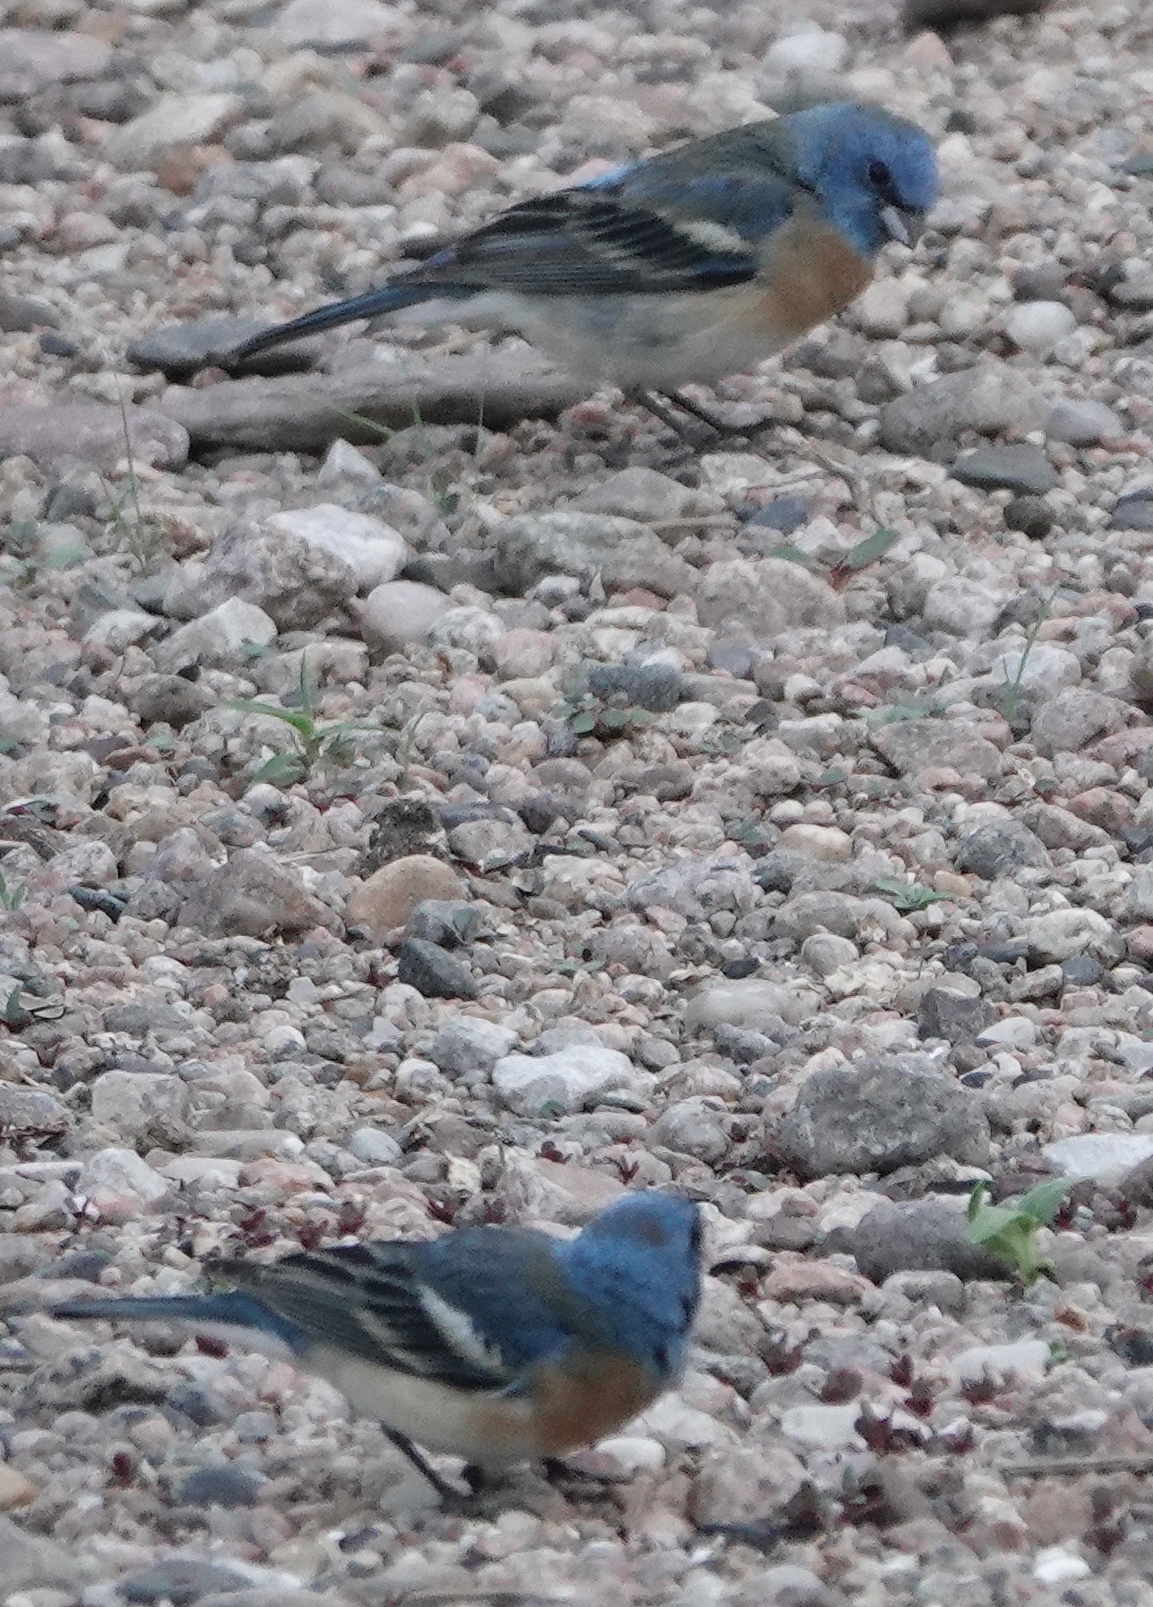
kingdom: Animalia
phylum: Chordata
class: Aves
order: Passeriformes
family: Cardinalidae
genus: Passerina
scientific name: Passerina amoena
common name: Lazuli bunting
